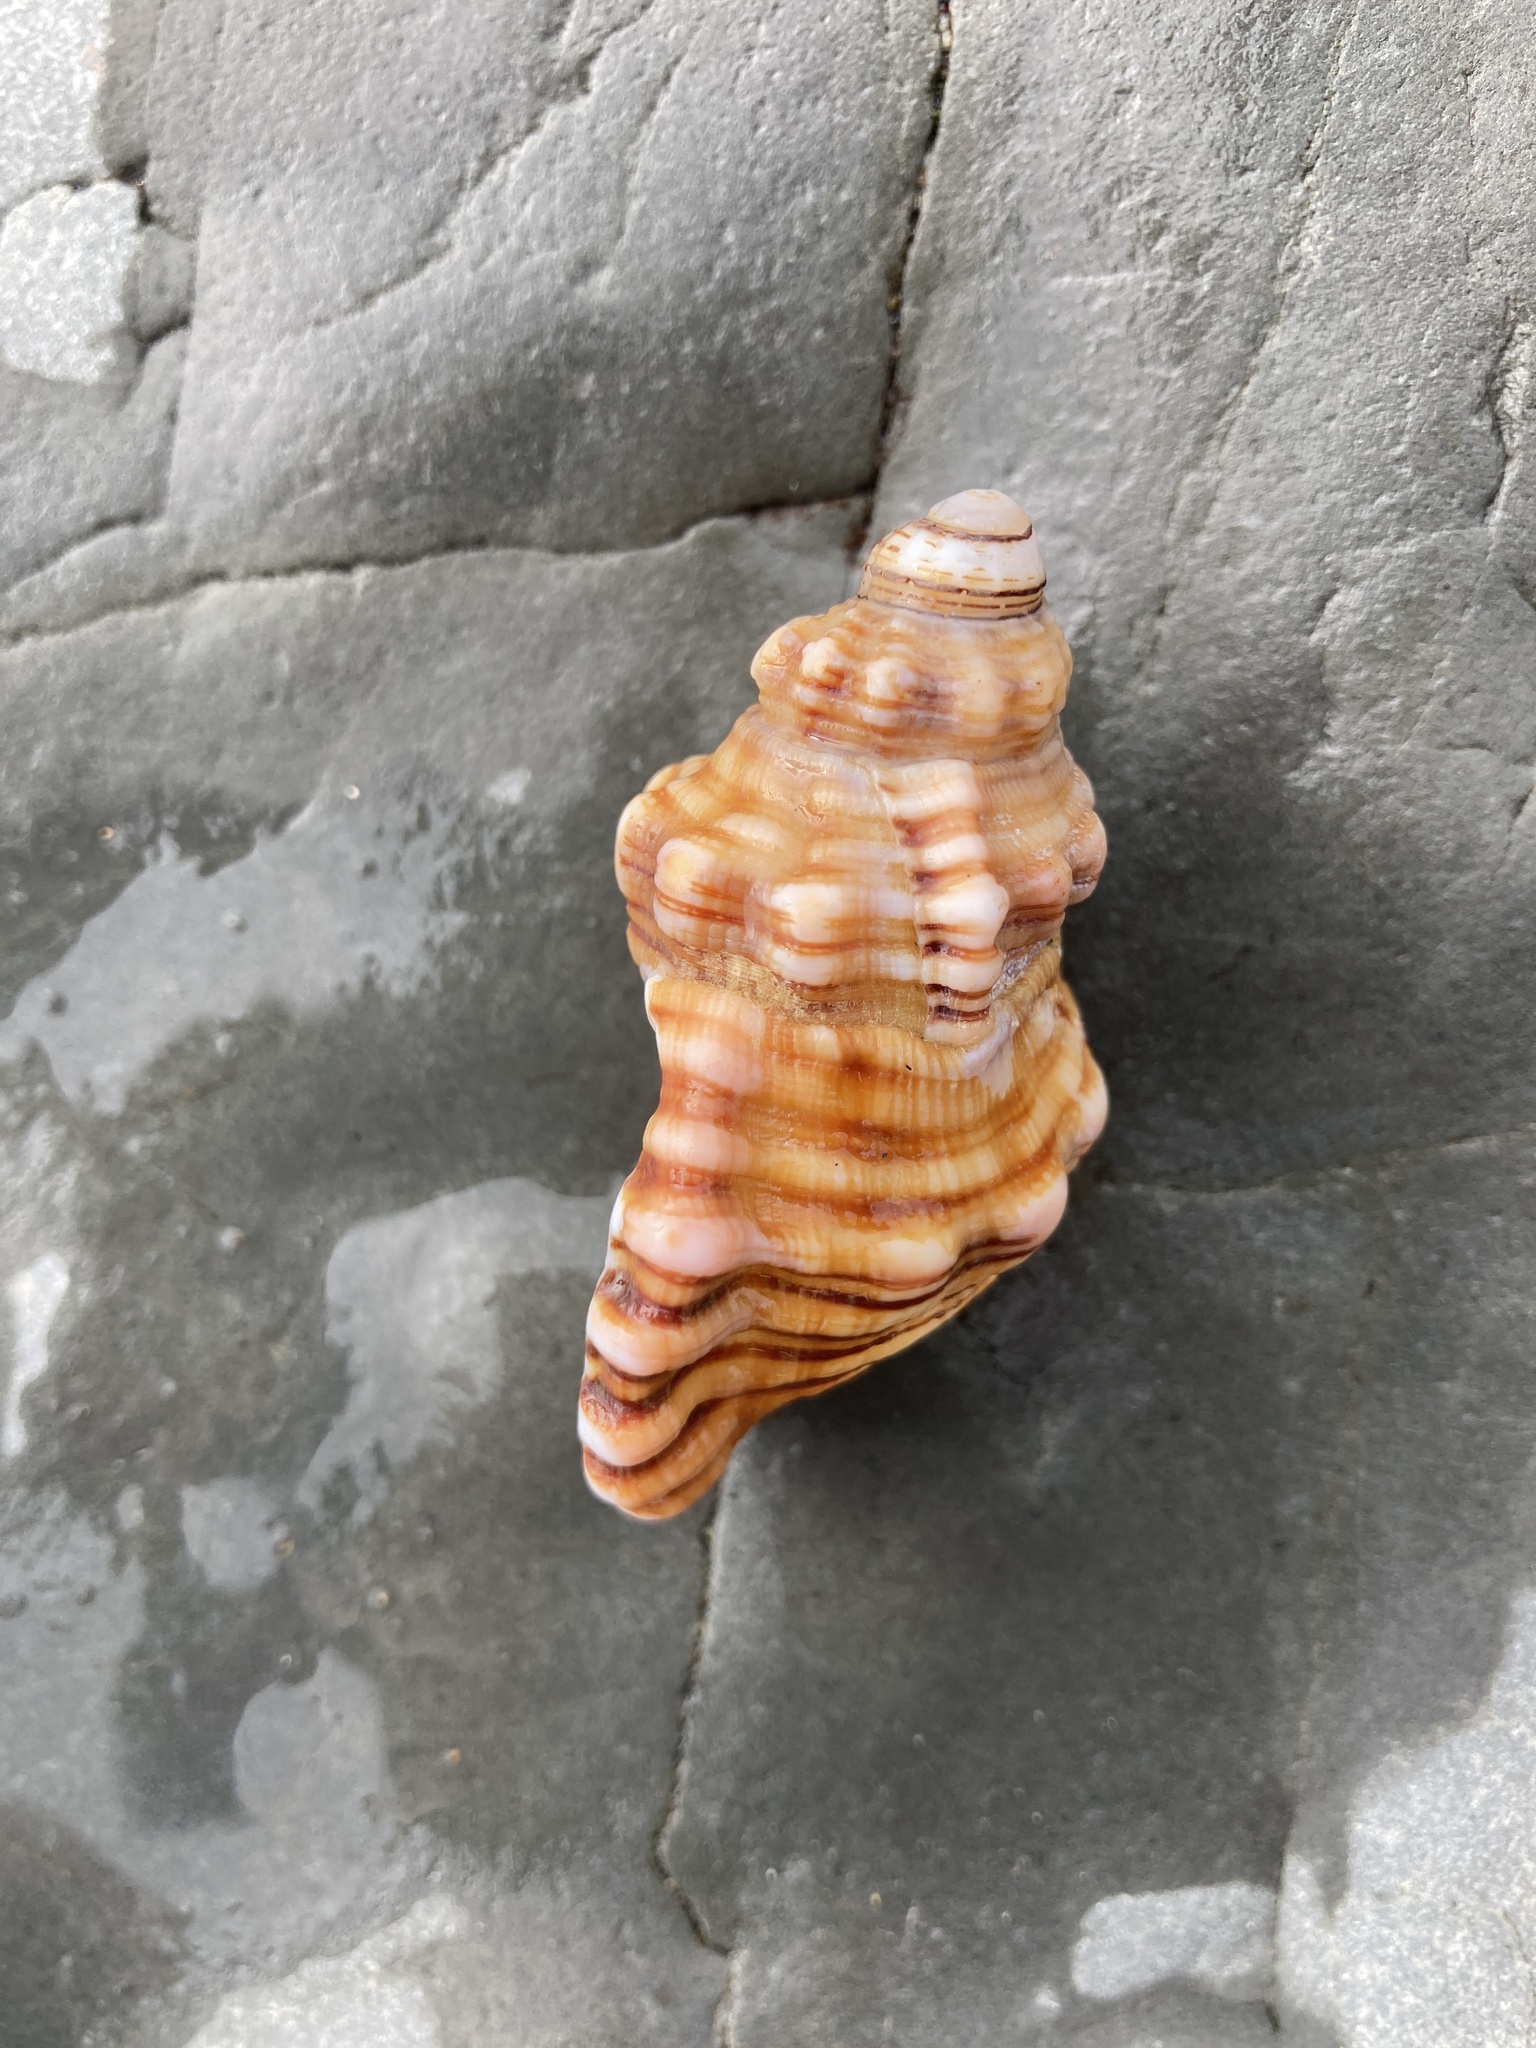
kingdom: Animalia
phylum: Mollusca
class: Gastropoda
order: Littorinimorpha
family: Cymatiidae
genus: Cabestana
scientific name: Cabestana spengleri
